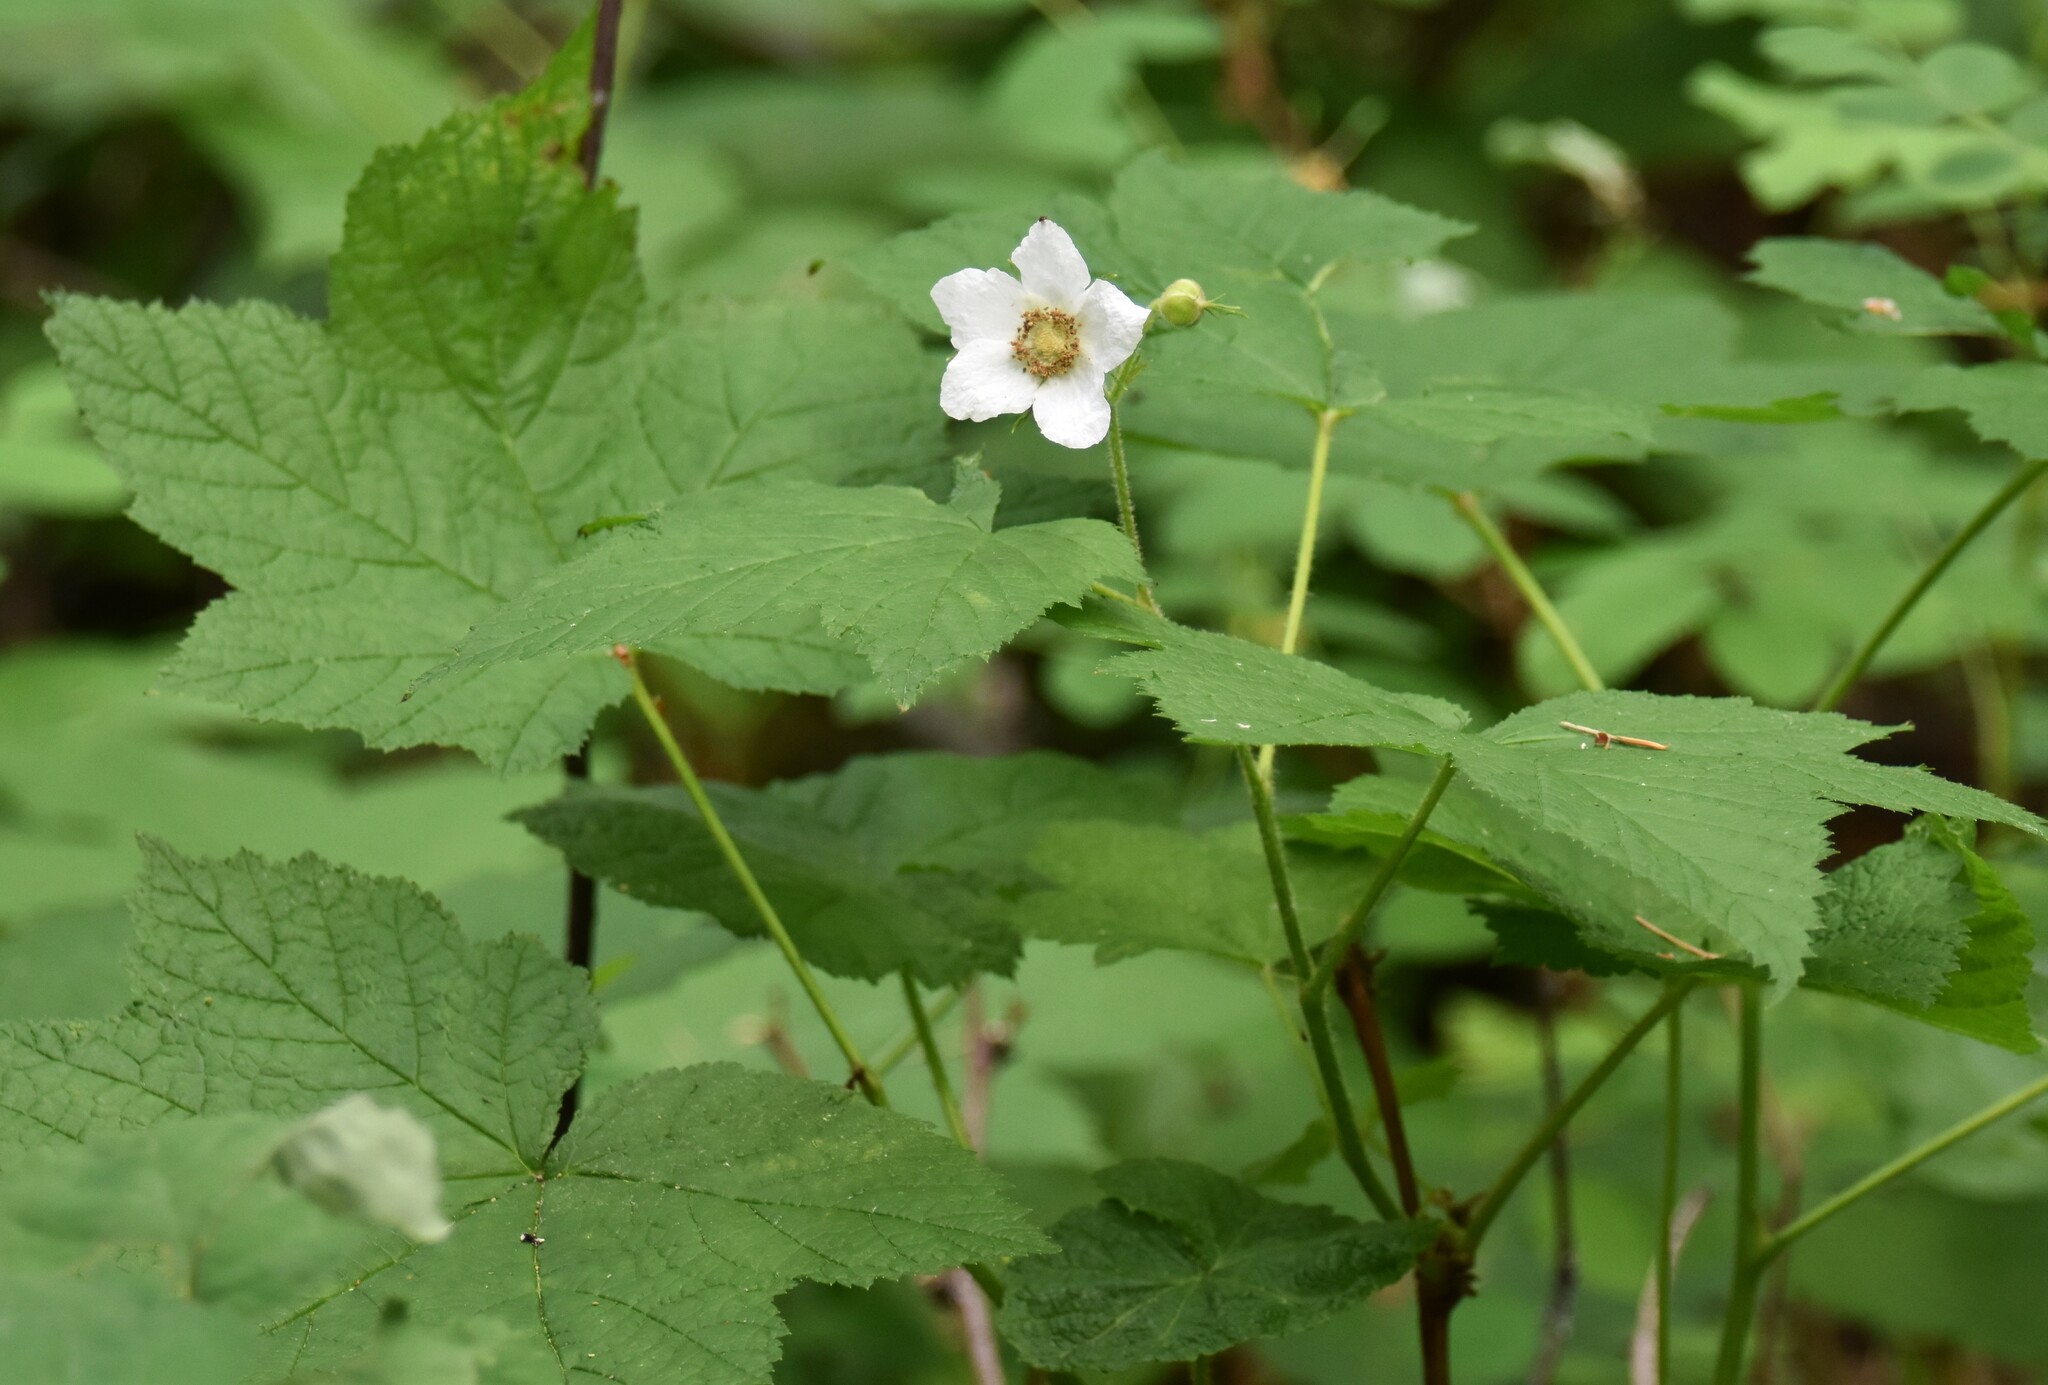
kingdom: Plantae
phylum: Tracheophyta
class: Magnoliopsida
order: Rosales
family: Rosaceae
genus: Rubus
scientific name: Rubus parviflorus
